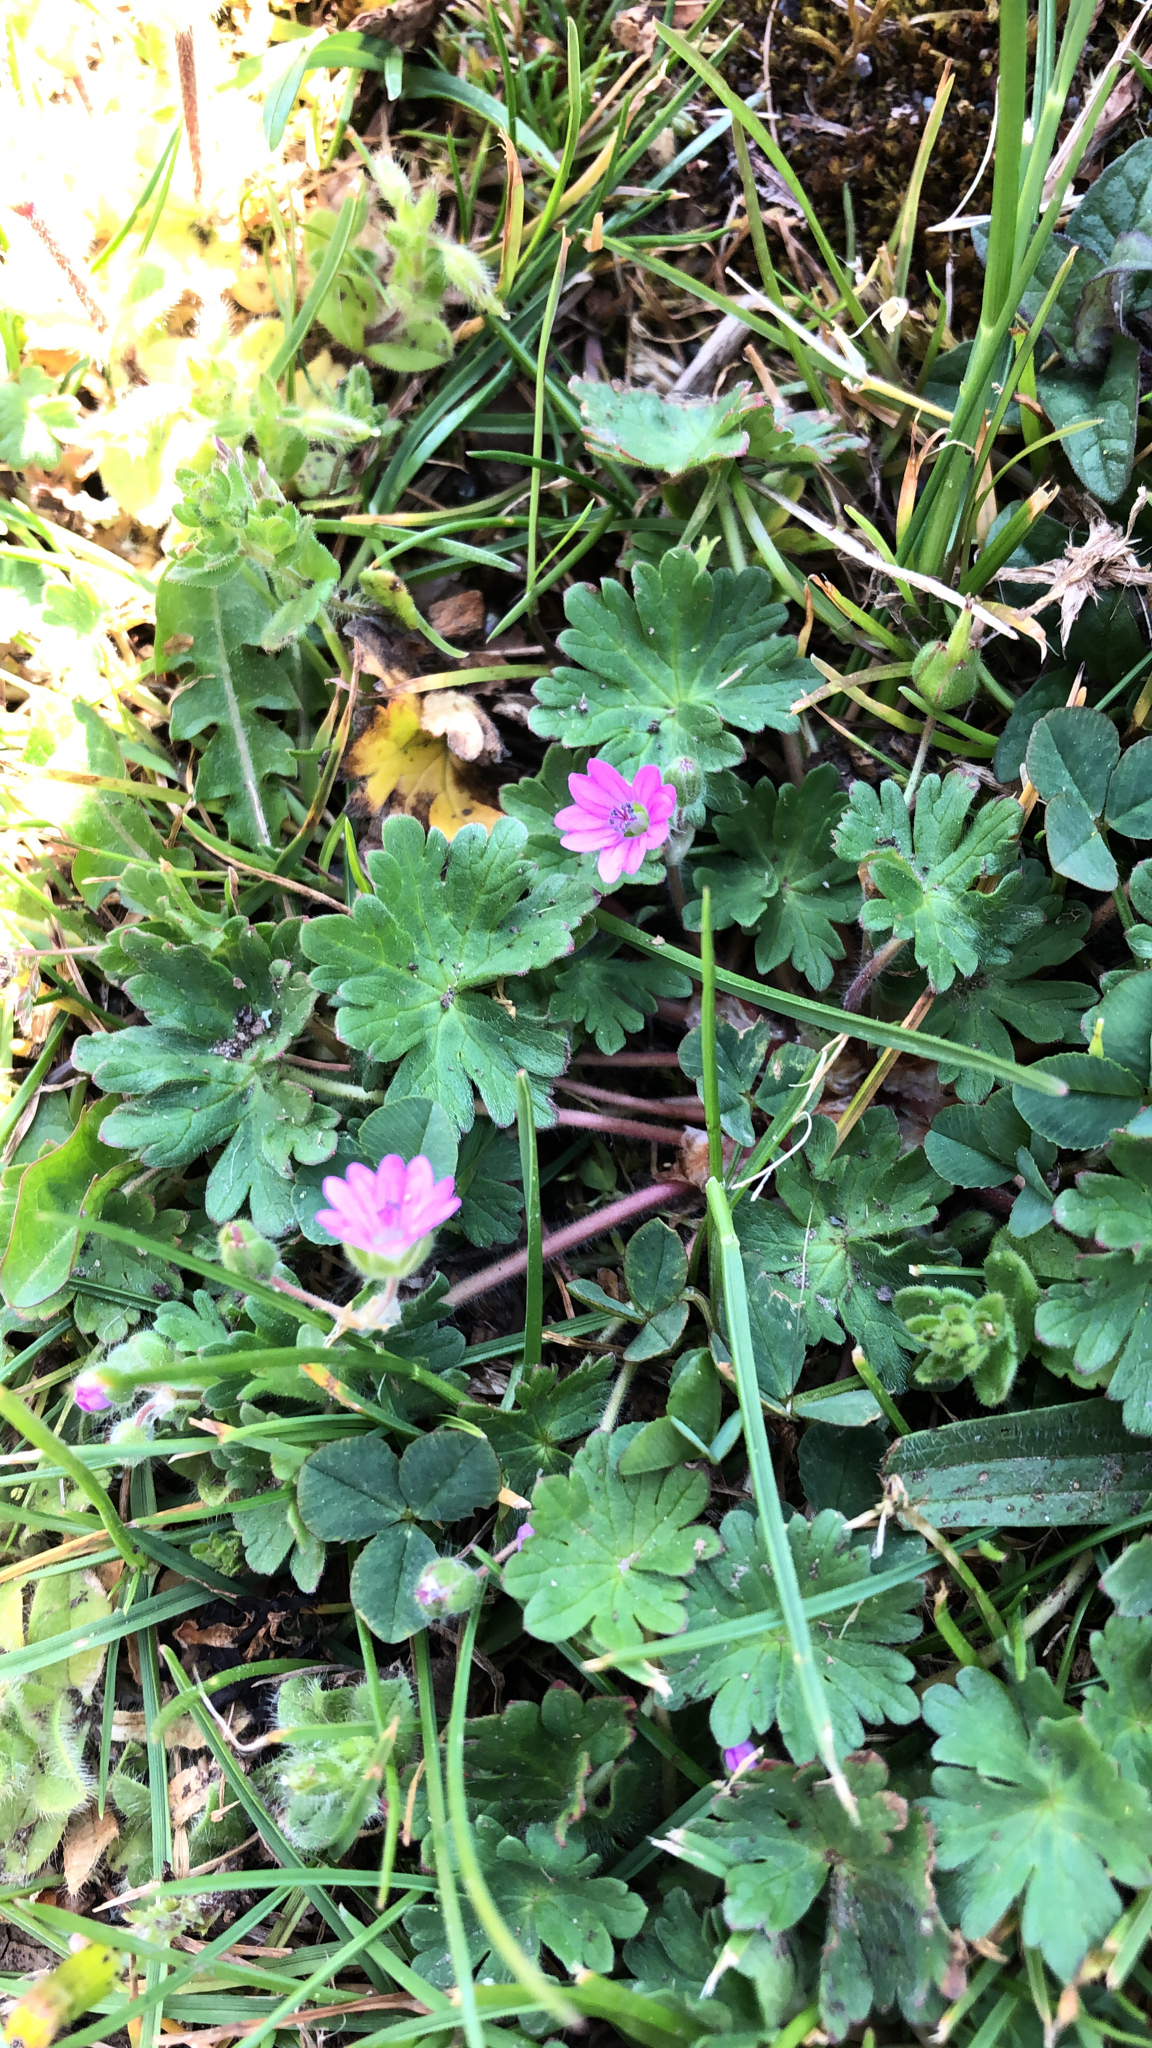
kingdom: Plantae
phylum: Tracheophyta
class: Magnoliopsida
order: Geraniales
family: Geraniaceae
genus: Geranium
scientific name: Geranium molle
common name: Dove's-foot crane's-bill
